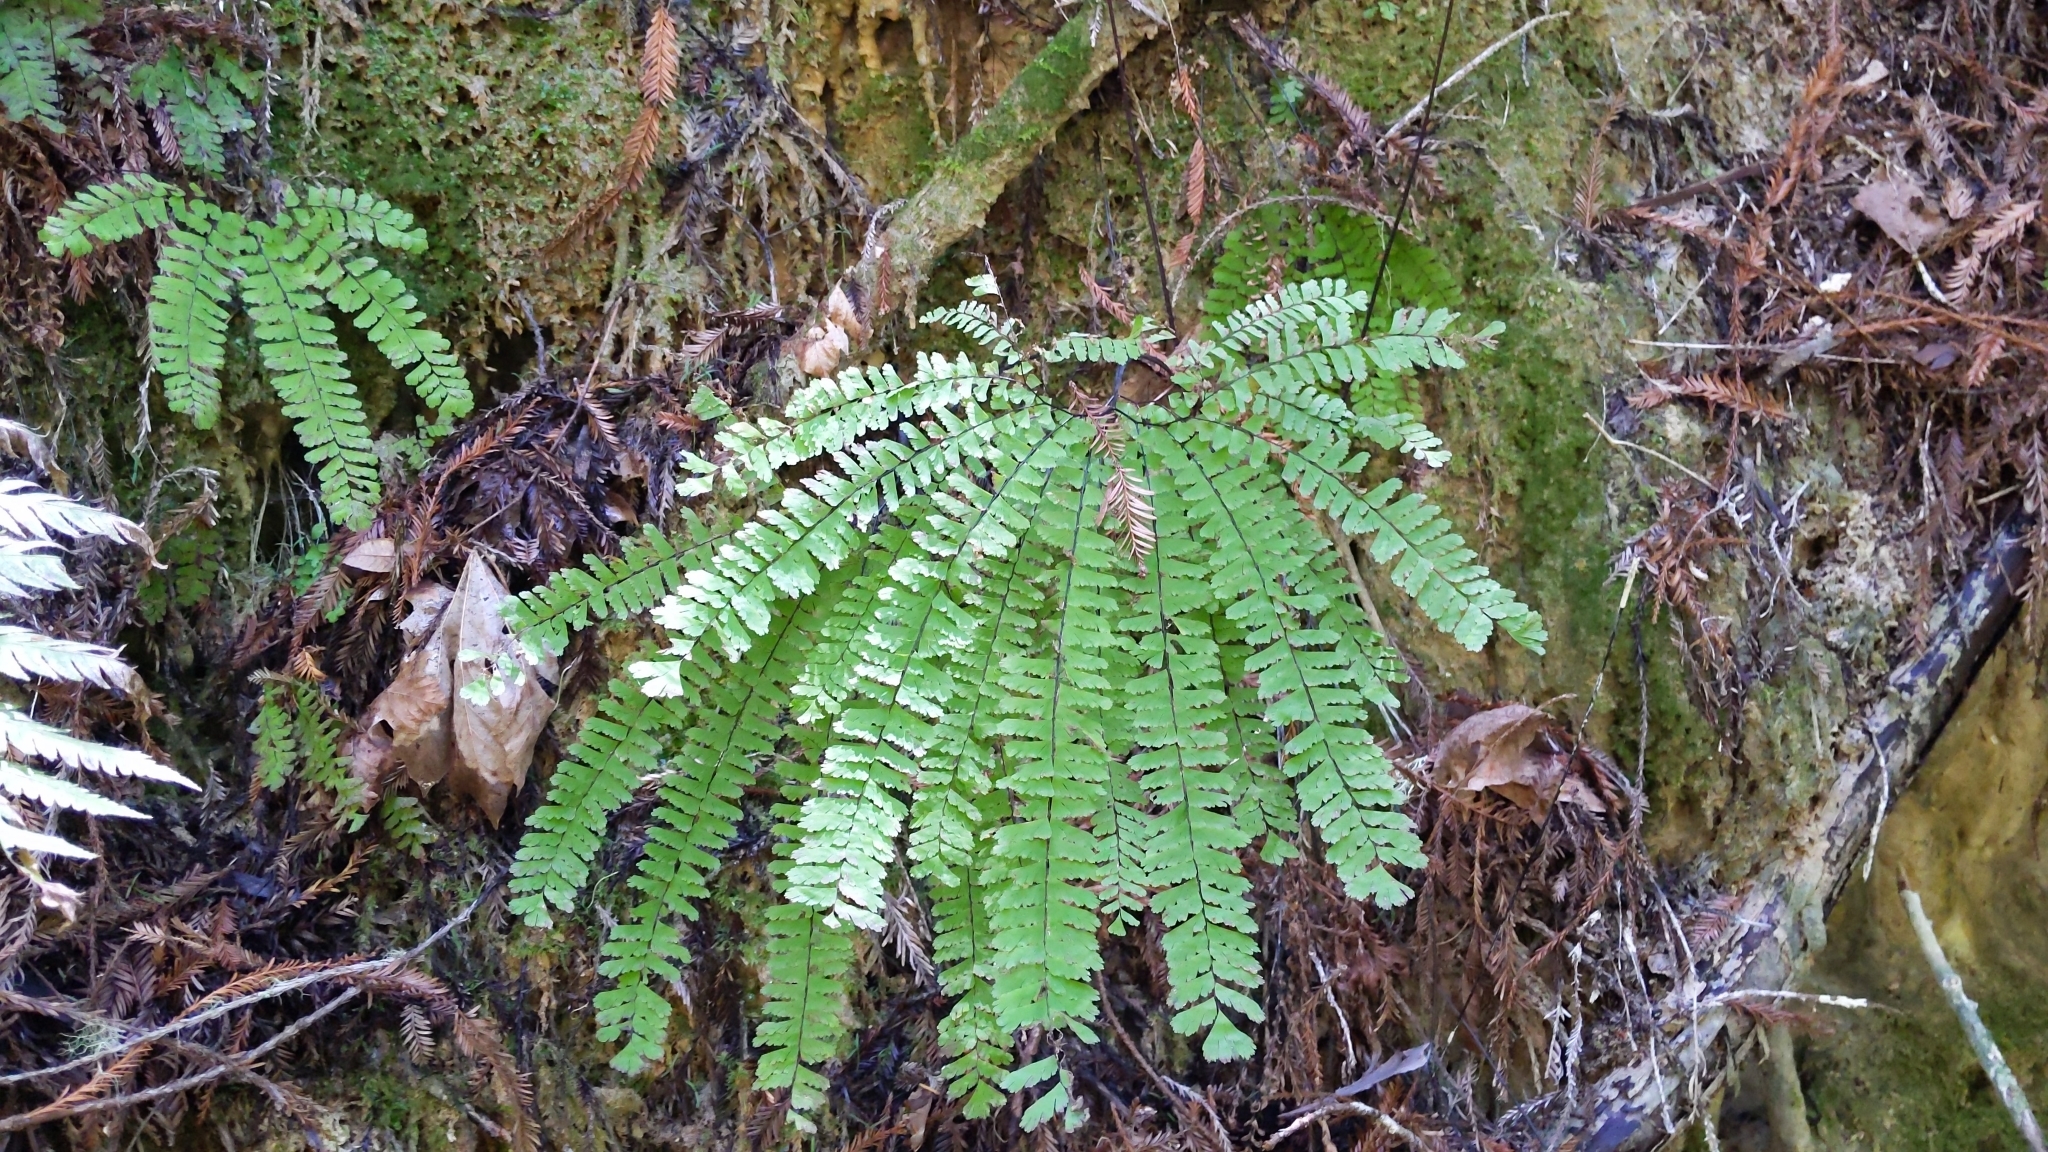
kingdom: Plantae
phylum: Tracheophyta
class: Polypodiopsida
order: Polypodiales
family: Pteridaceae
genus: Adiantum
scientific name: Adiantum aleuticum
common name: Aleutian maidenhair fern
